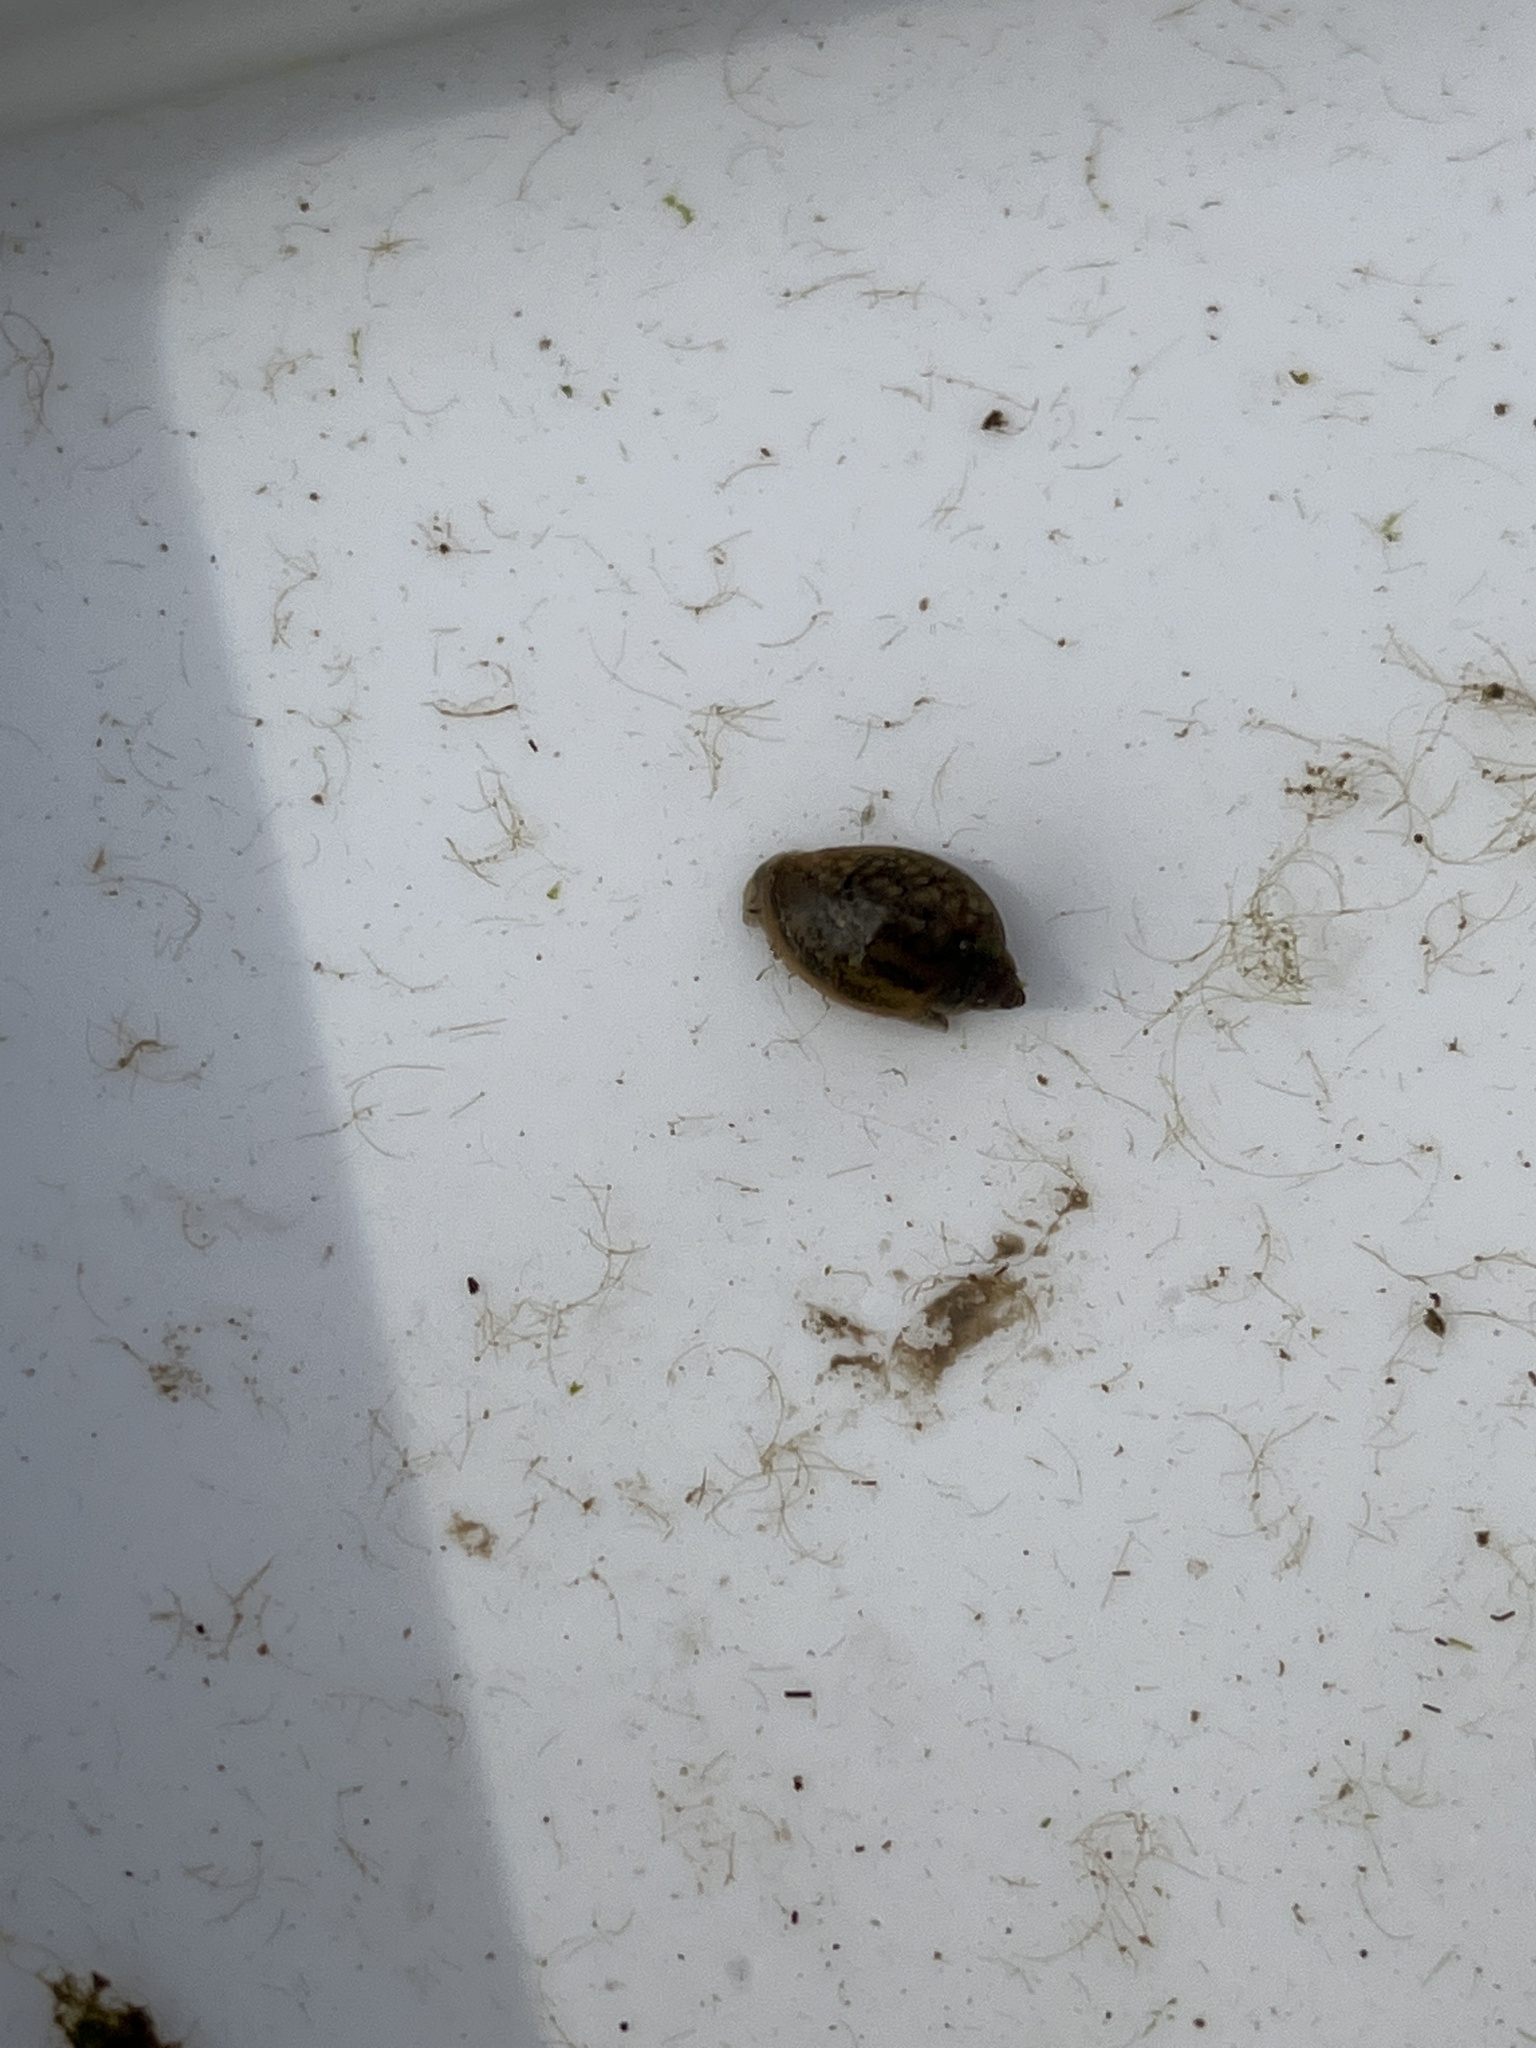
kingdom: Animalia
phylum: Mollusca
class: Gastropoda
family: Physidae
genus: Physella
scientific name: Physella acuta
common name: European physa
